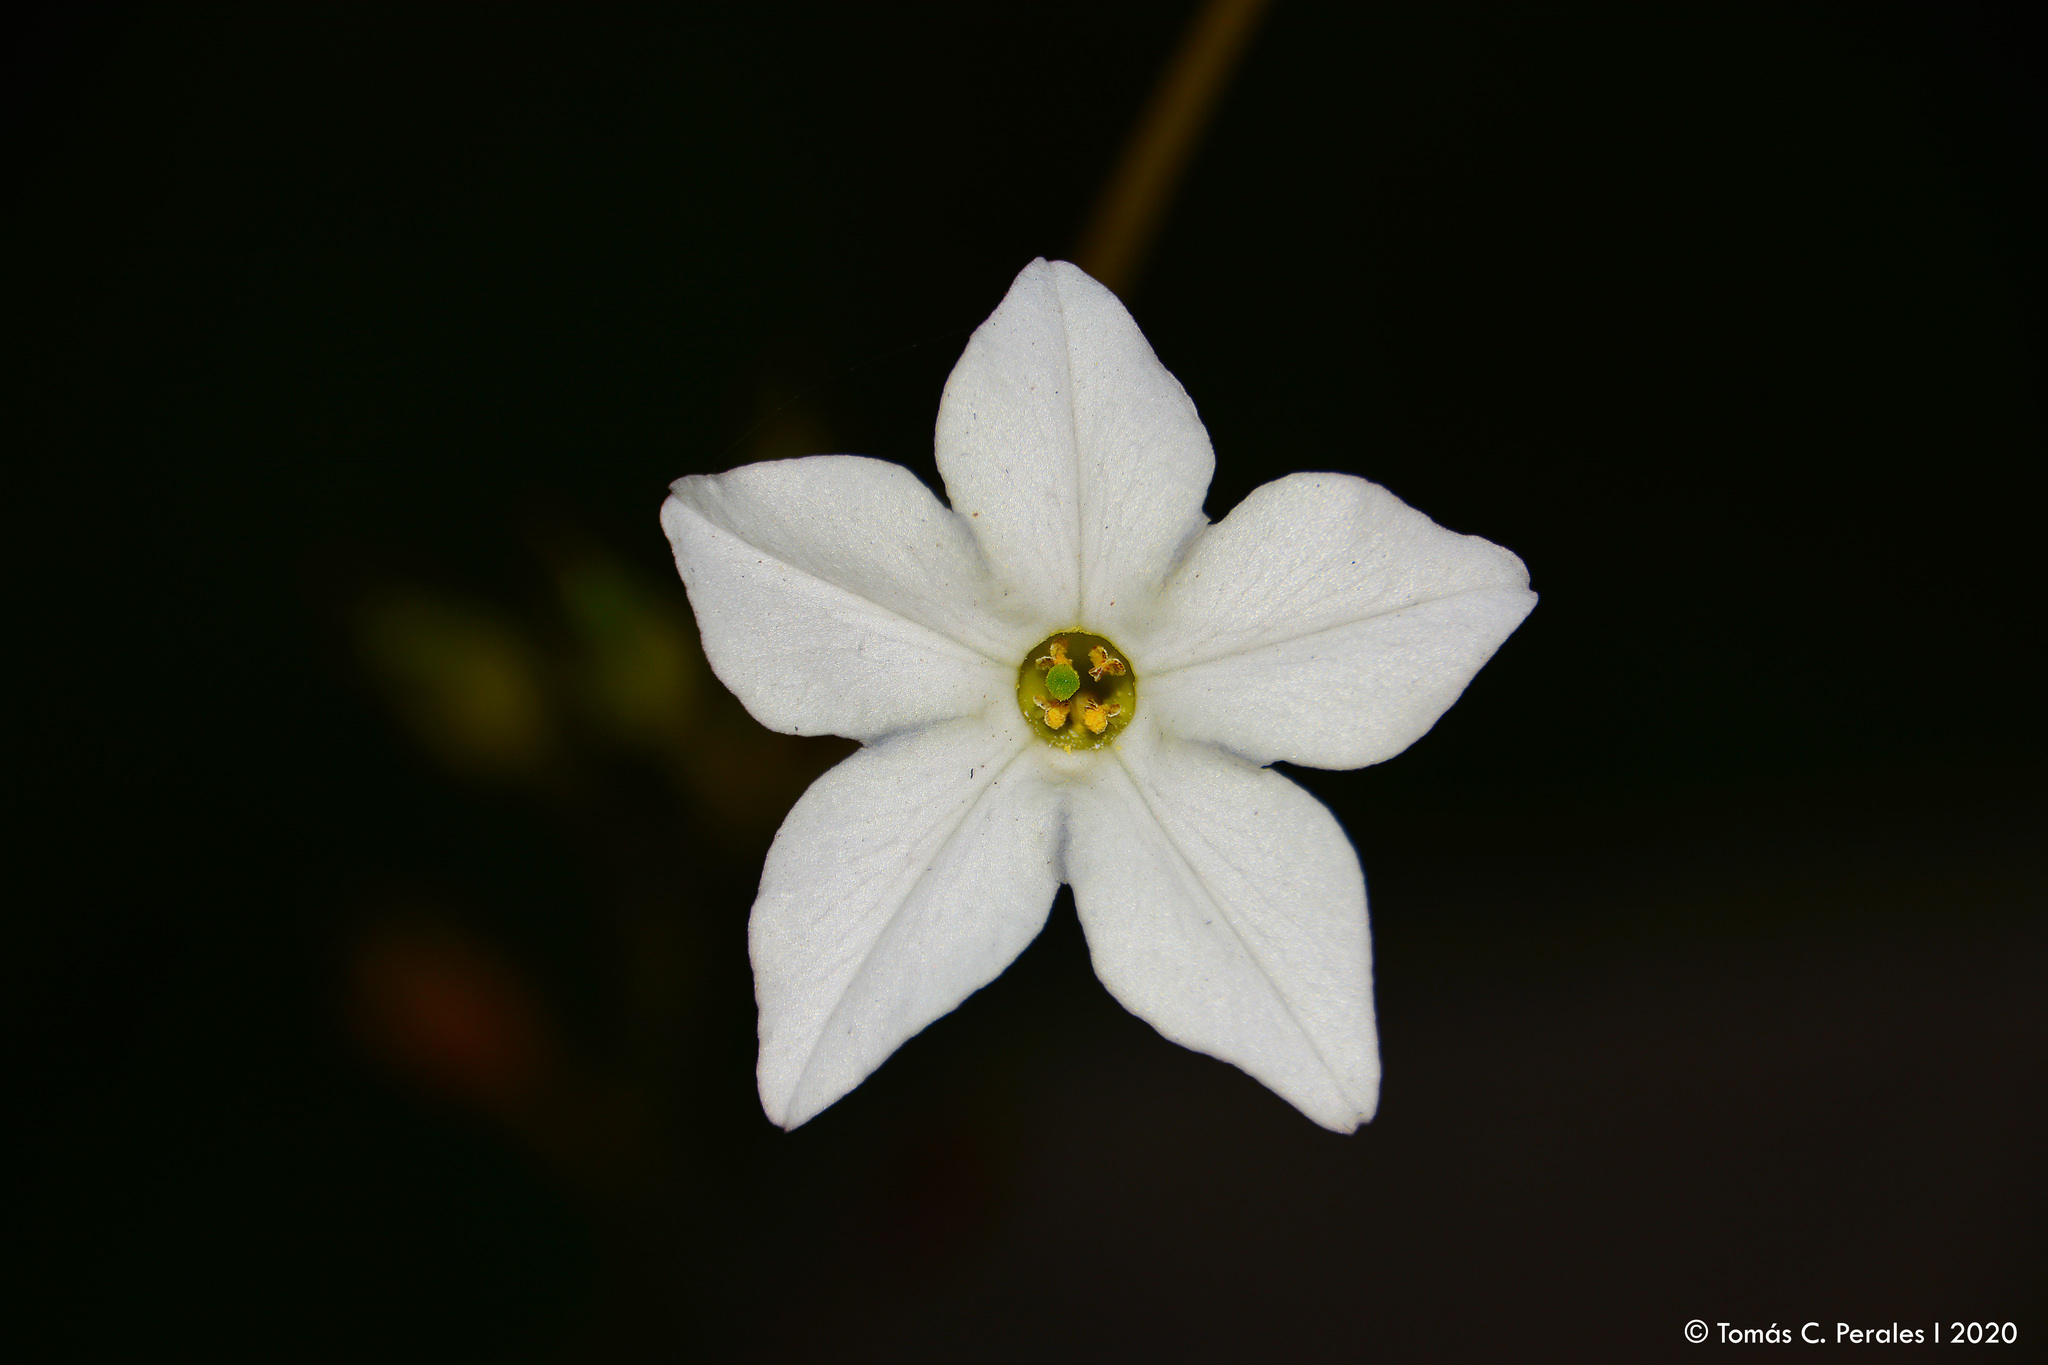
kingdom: Plantae
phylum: Tracheophyta
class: Magnoliopsida
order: Solanales
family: Solanaceae
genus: Nicotiana
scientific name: Nicotiana longiflora
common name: Long-flowered tobacco
